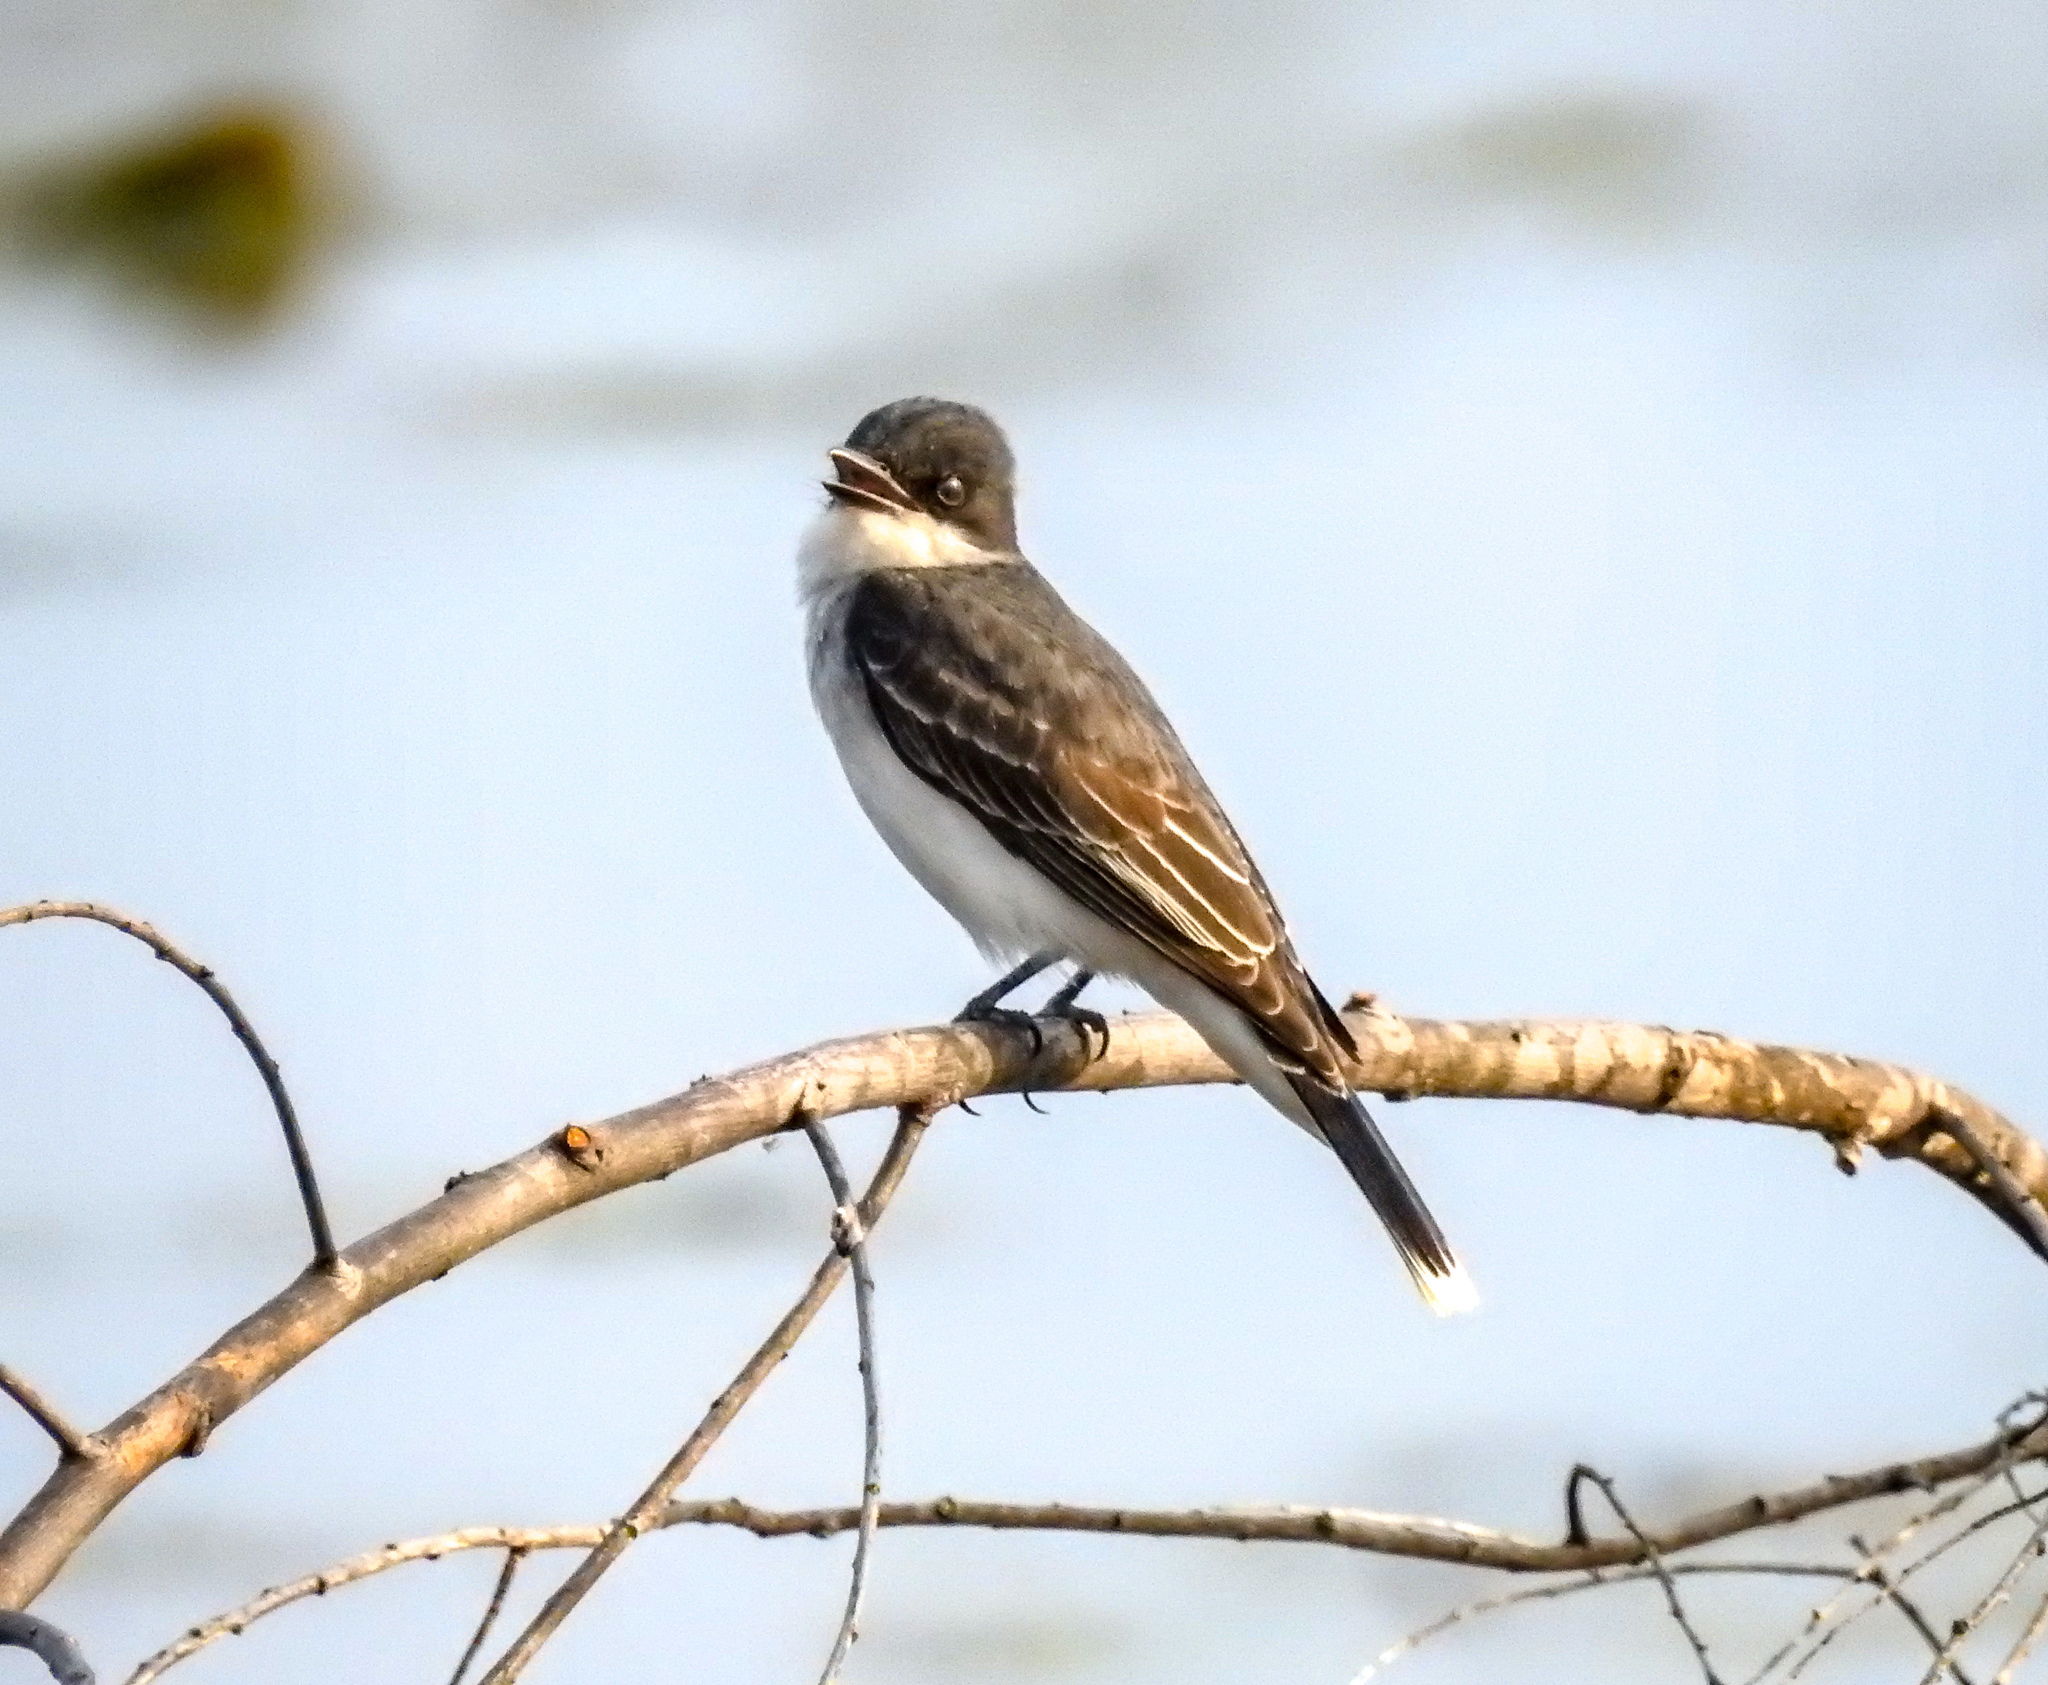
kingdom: Animalia
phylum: Chordata
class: Aves
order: Passeriformes
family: Tyrannidae
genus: Tyrannus
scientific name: Tyrannus tyrannus
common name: Eastern kingbird
